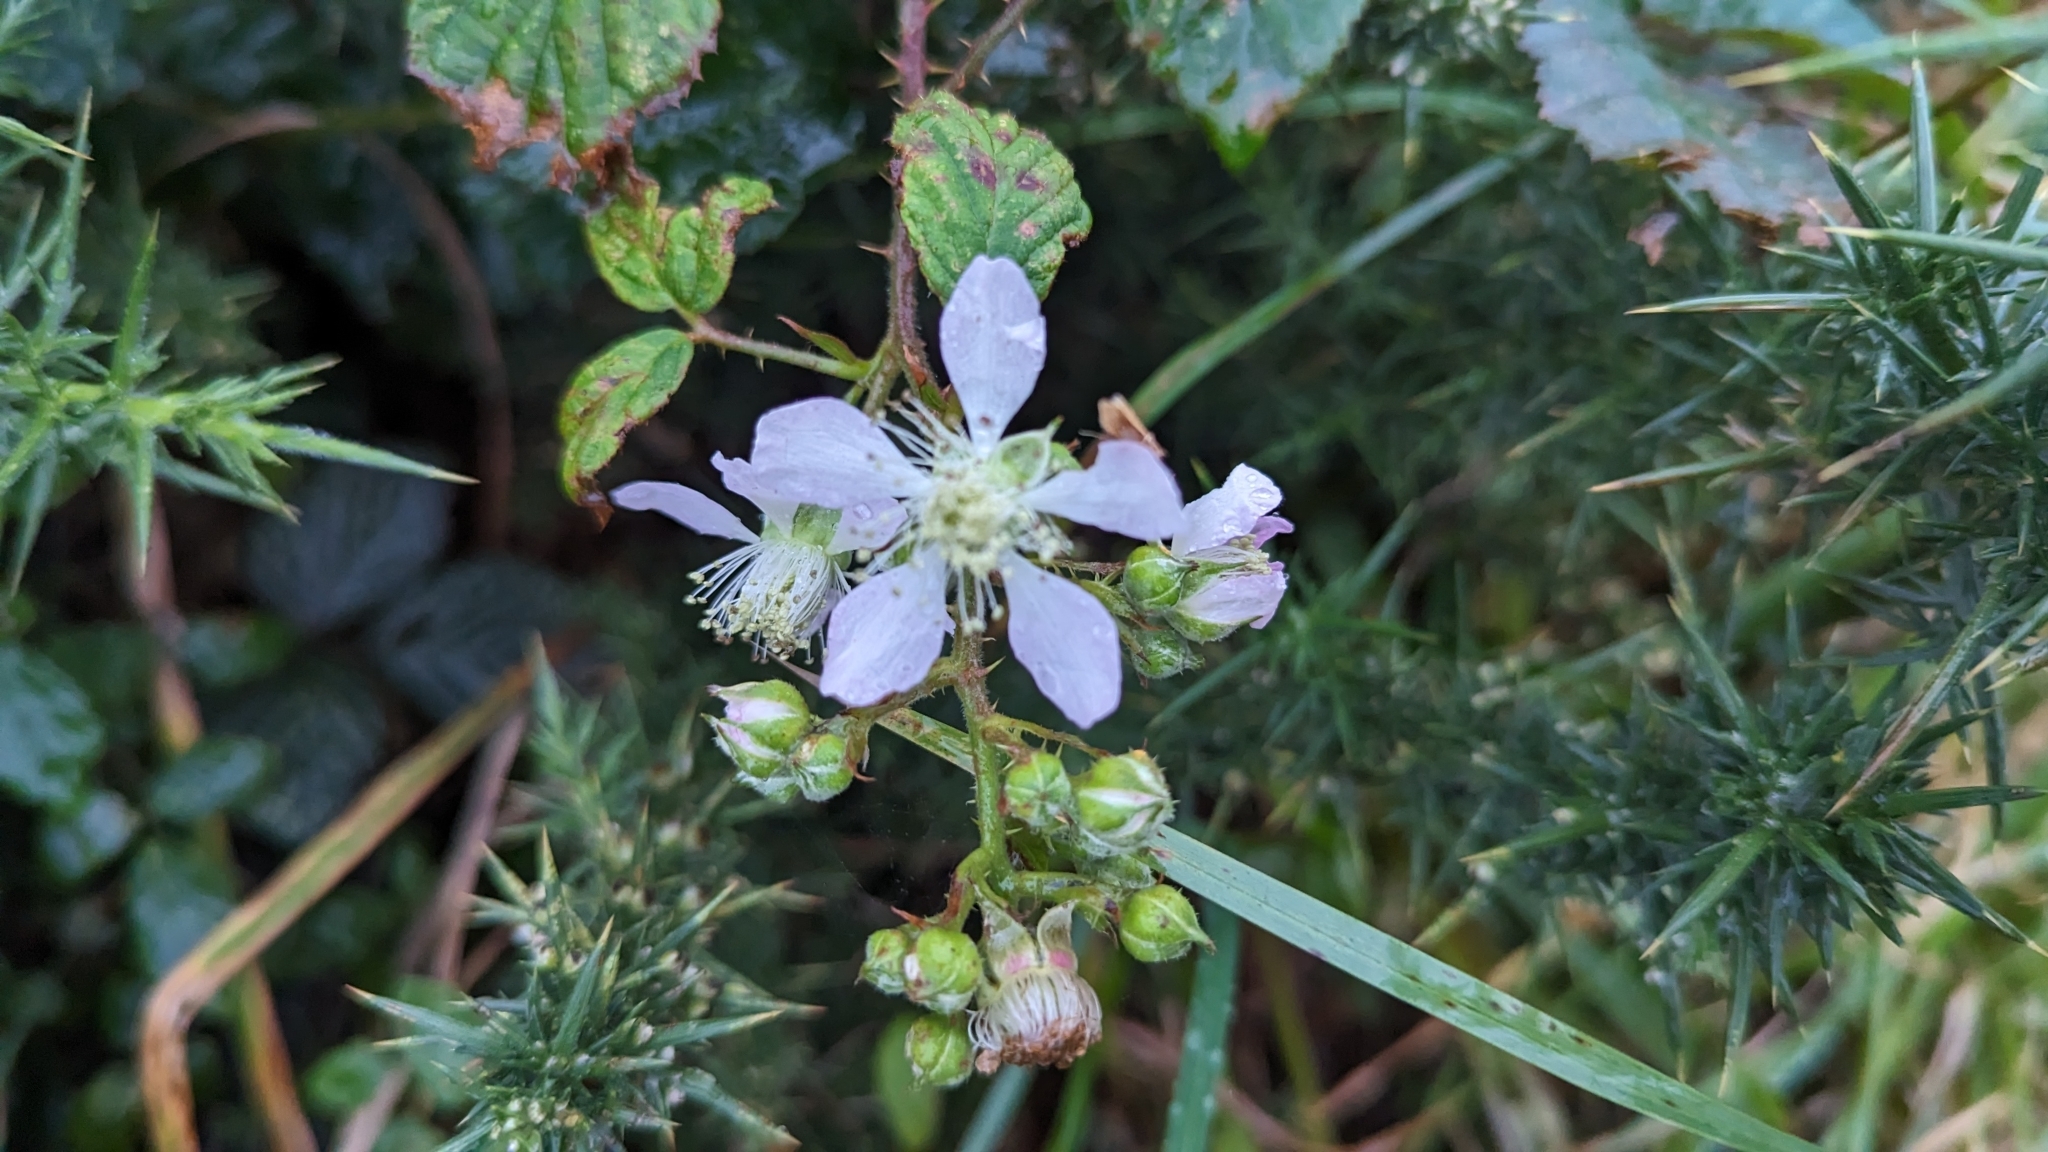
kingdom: Plantae
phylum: Tracheophyta
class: Magnoliopsida
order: Rosales
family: Rosaceae
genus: Rubus
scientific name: Rubus ulmifolius
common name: Elmleaf blackberry
